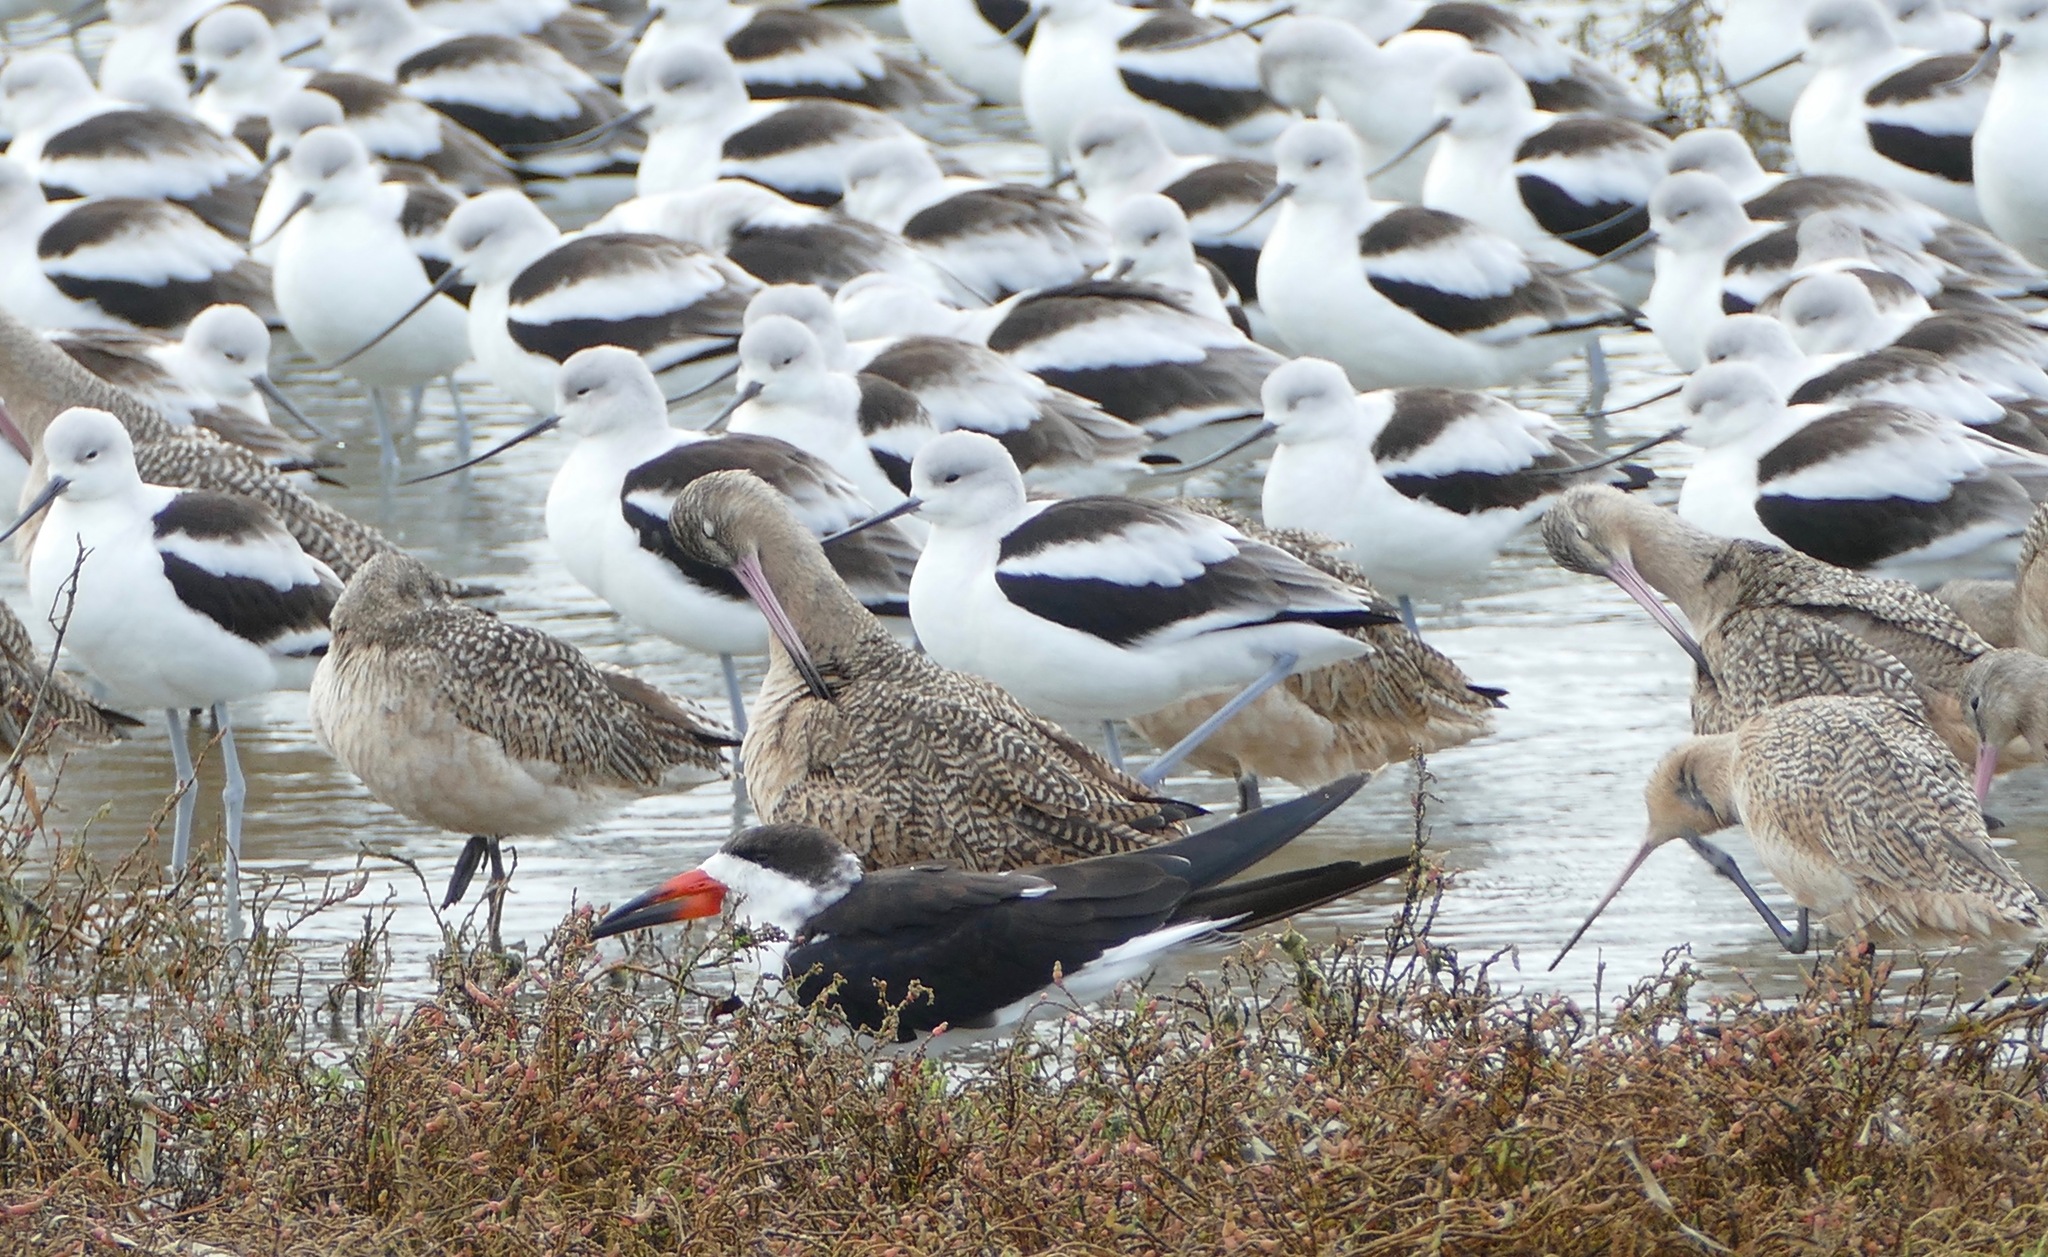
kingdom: Animalia
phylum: Chordata
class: Aves
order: Charadriiformes
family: Laridae
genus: Rynchops
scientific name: Rynchops niger
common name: Black skimmer
